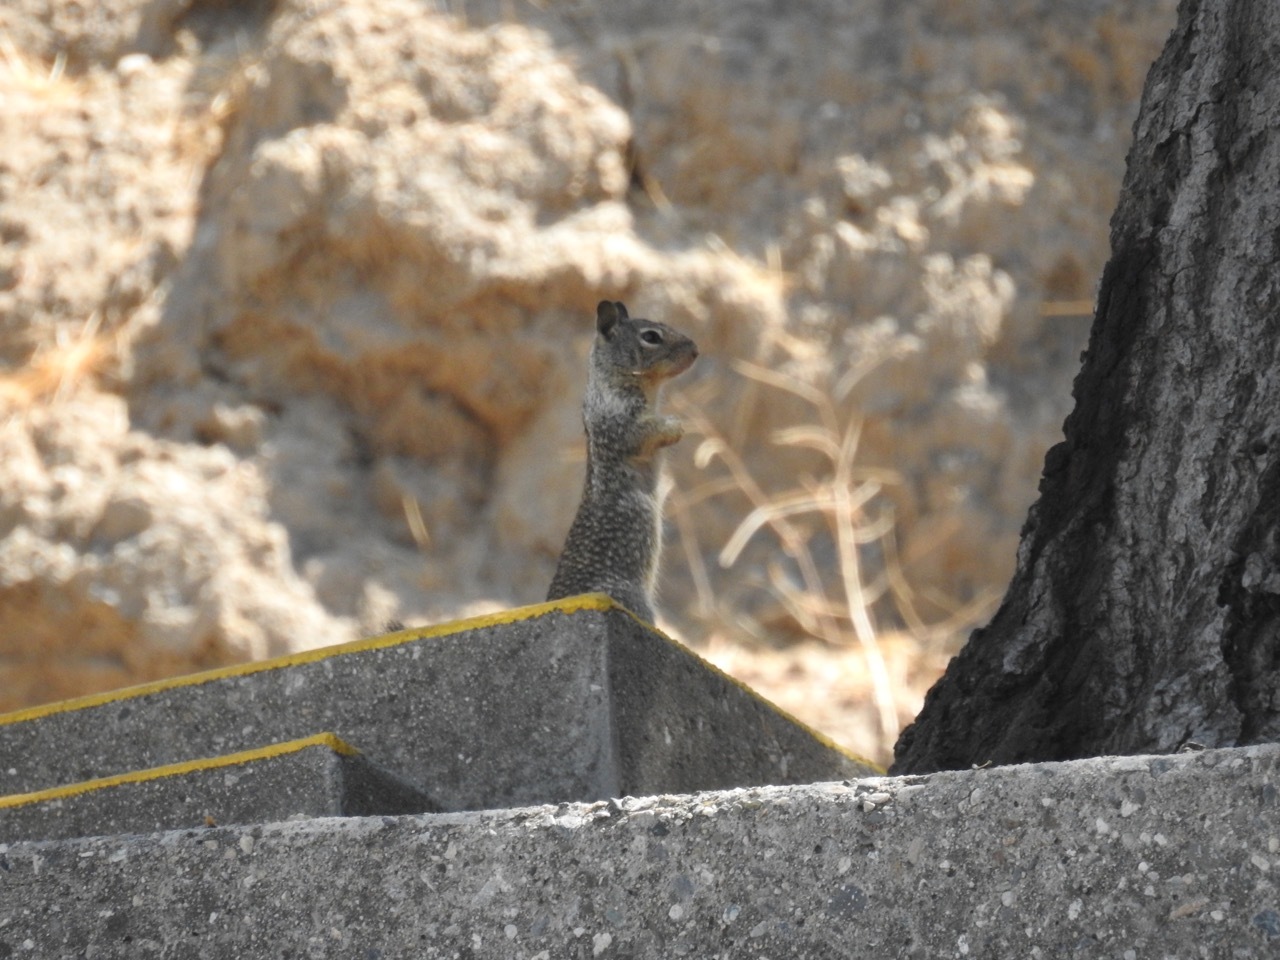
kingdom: Animalia
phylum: Chordata
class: Mammalia
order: Rodentia
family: Sciuridae
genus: Otospermophilus
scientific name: Otospermophilus beecheyi
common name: California ground squirrel
